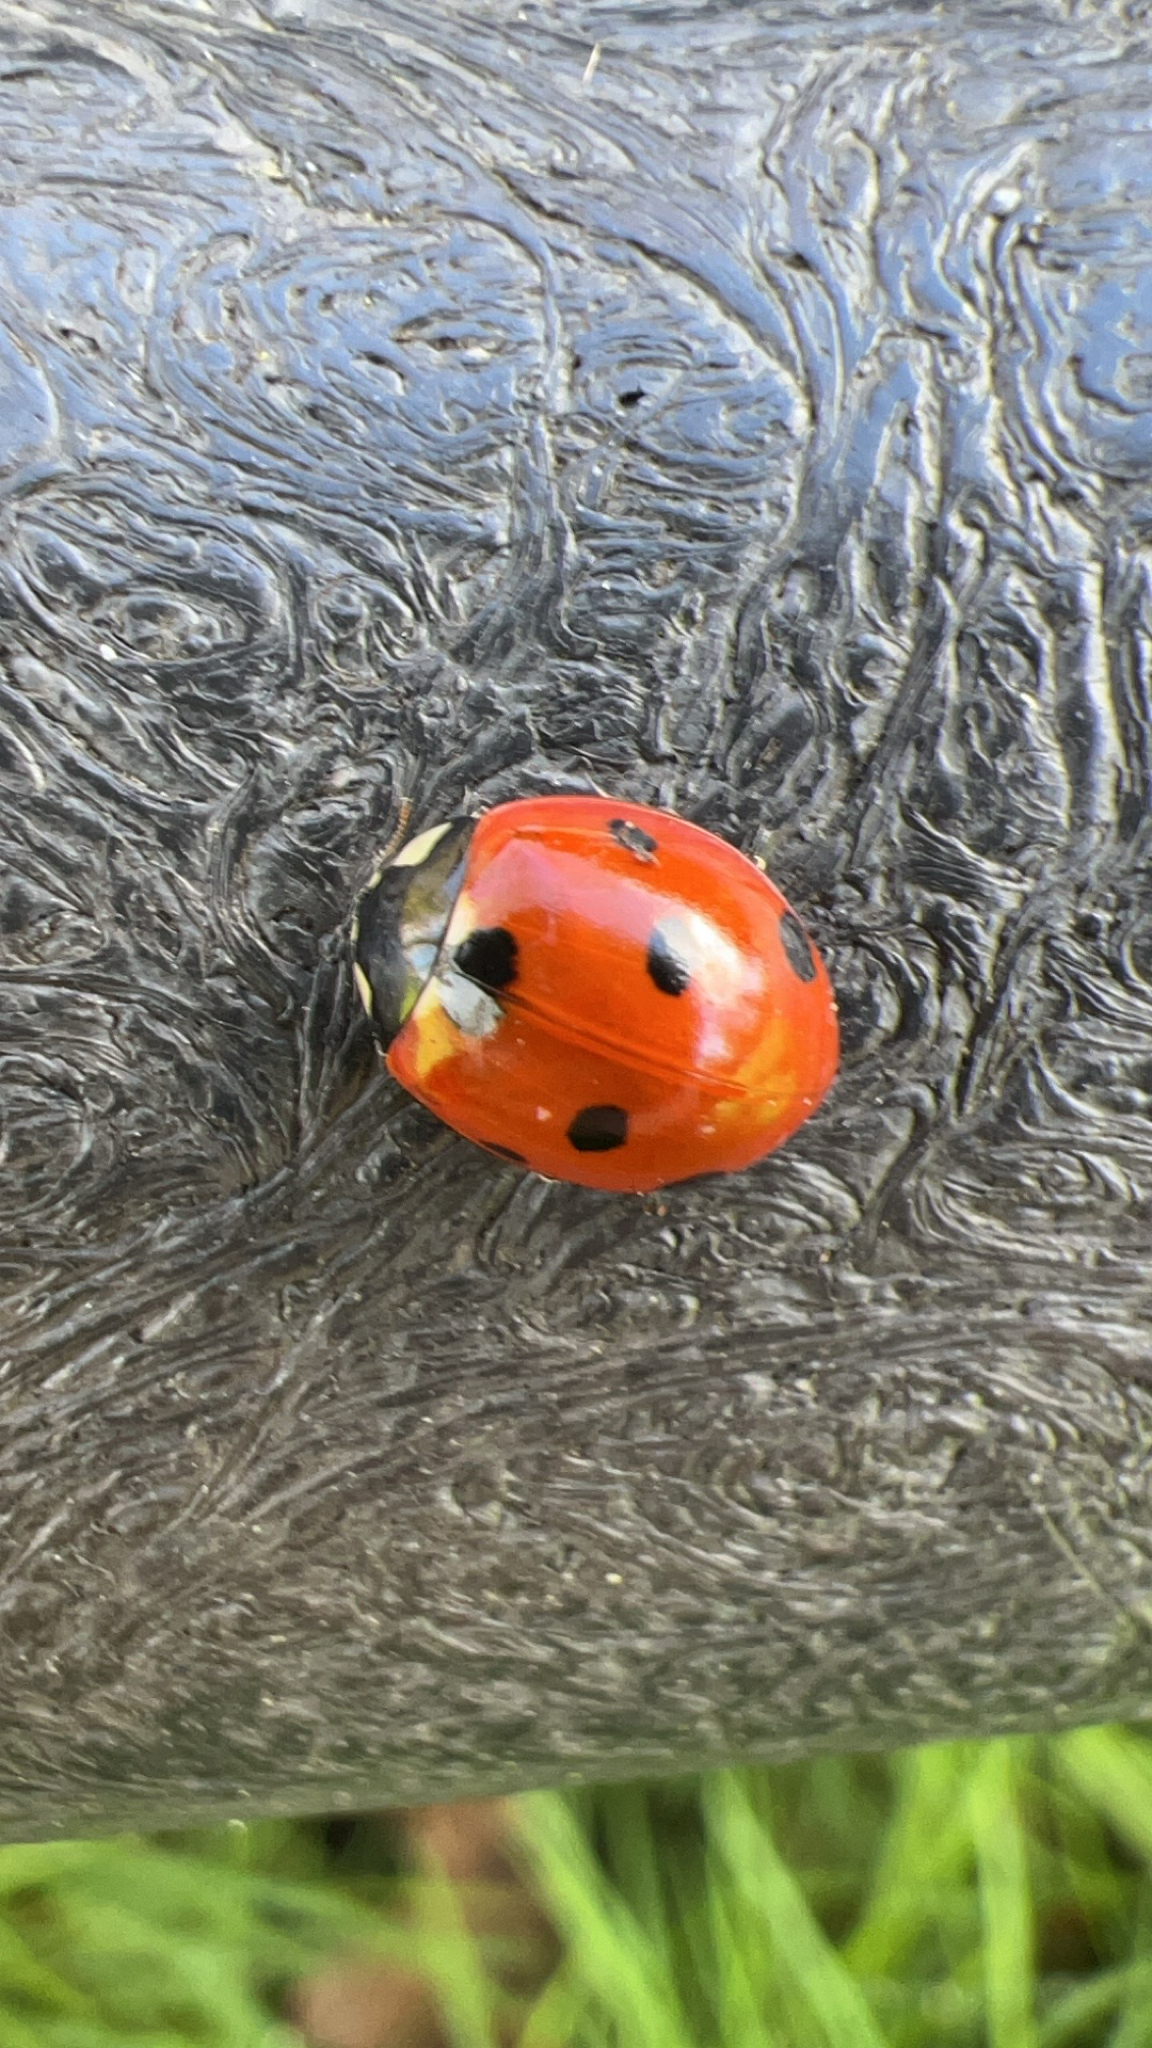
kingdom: Animalia
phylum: Arthropoda
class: Insecta
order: Coleoptera
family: Coccinellidae
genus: Coccinella
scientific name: Coccinella septempunctata
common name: Sevenspotted lady beetle
